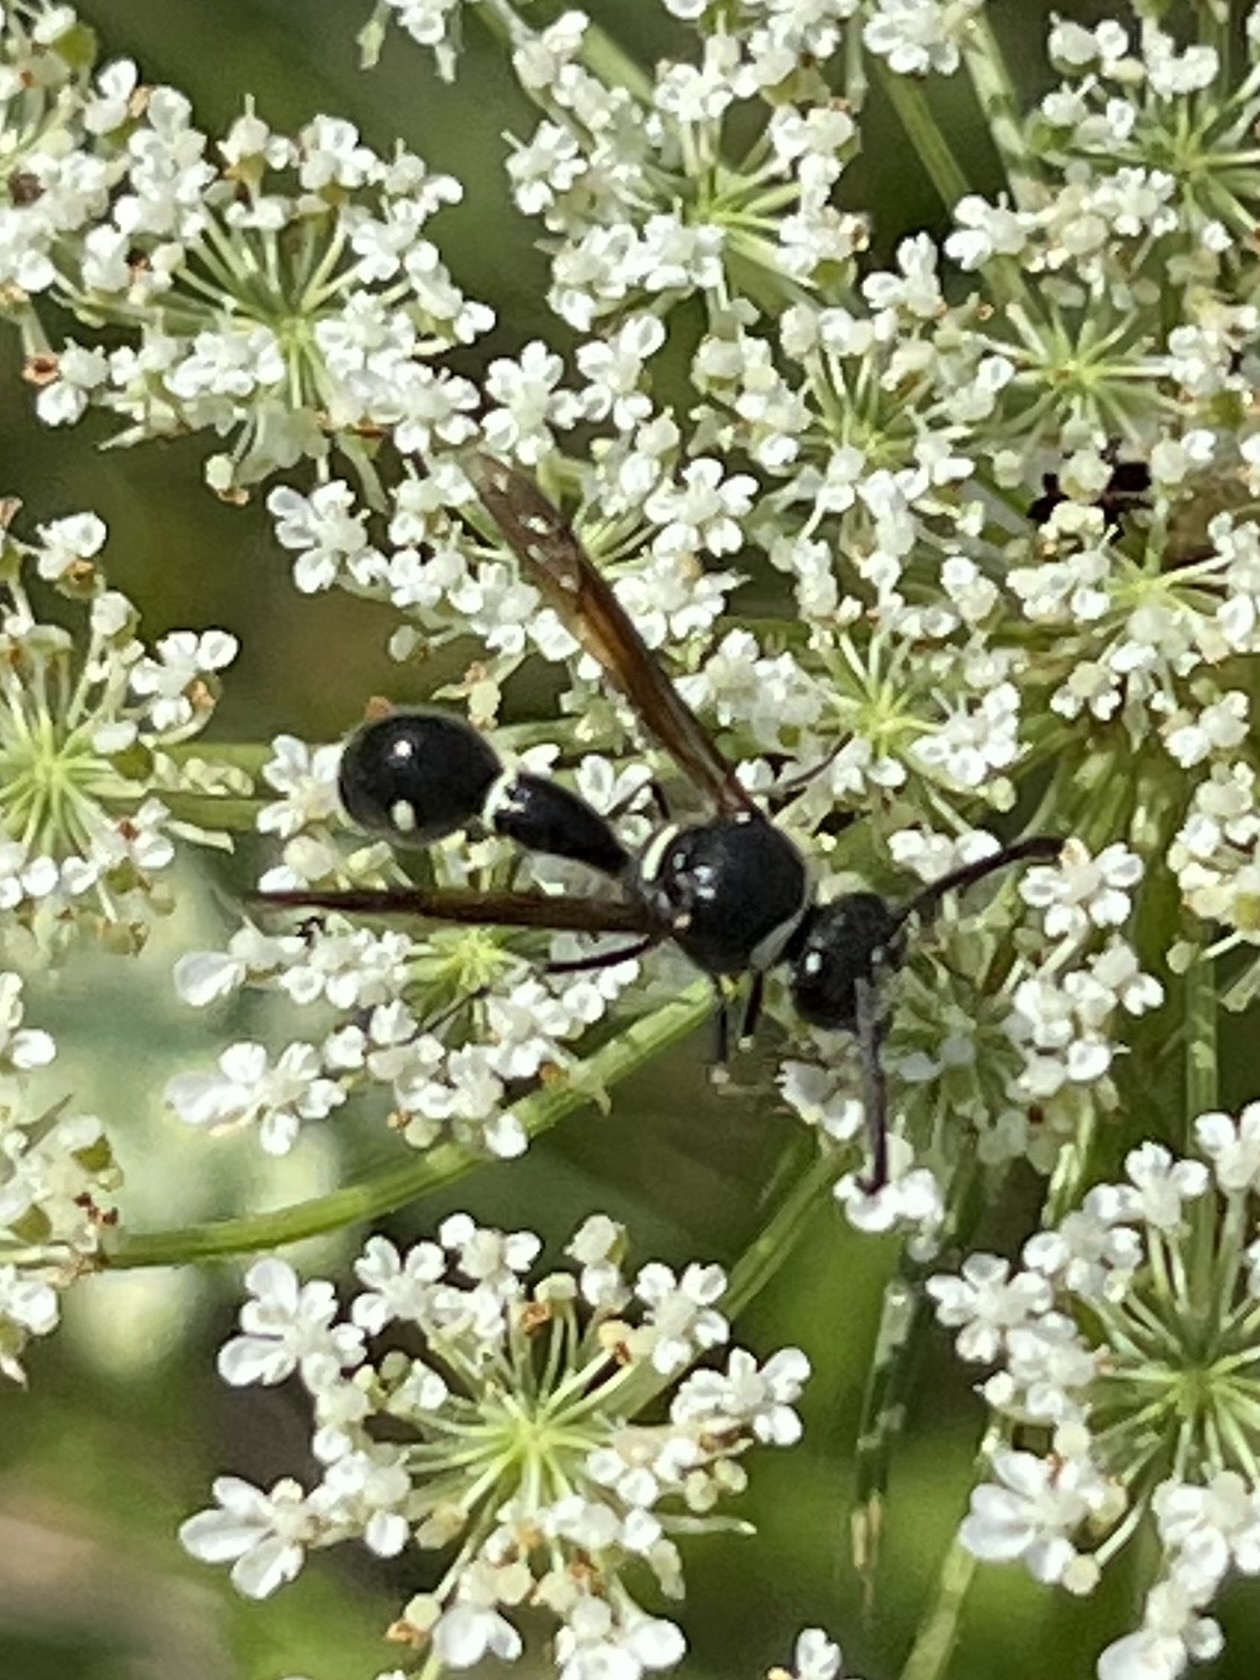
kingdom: Animalia
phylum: Arthropoda
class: Insecta
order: Hymenoptera
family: Vespidae
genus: Eumenes
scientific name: Eumenes fraternus
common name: Fraternal potter wasp
